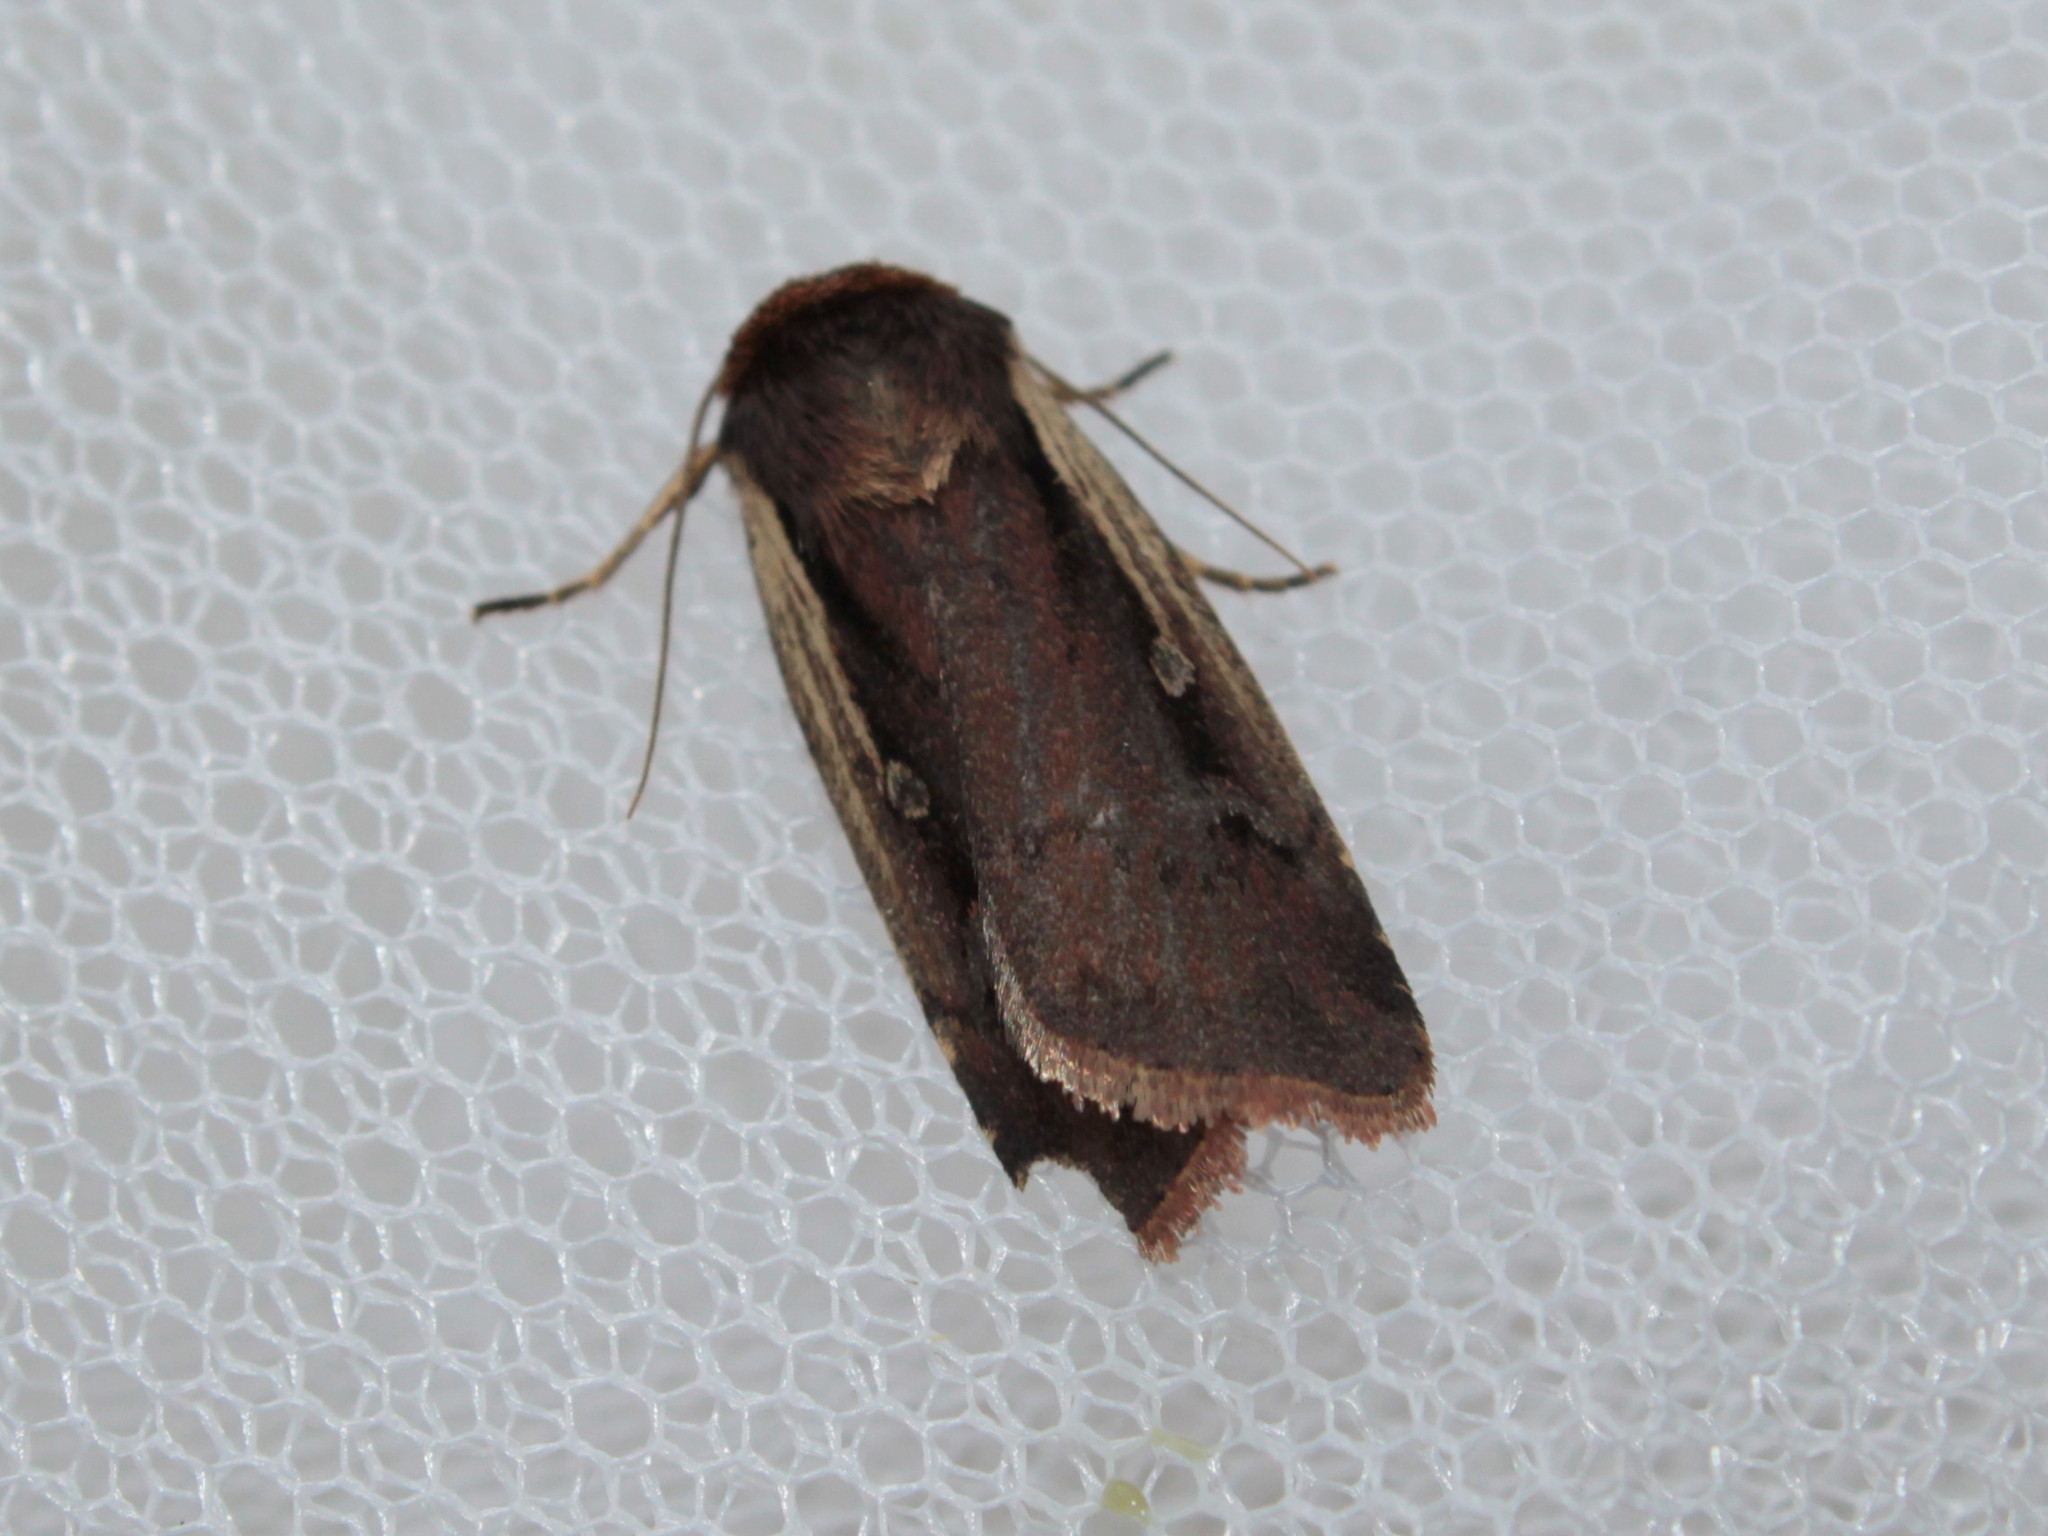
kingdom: Animalia
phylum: Arthropoda
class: Insecta
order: Lepidoptera
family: Noctuidae
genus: Ochropleura
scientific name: Ochropleura implecta
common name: Flame-shouldered dart
